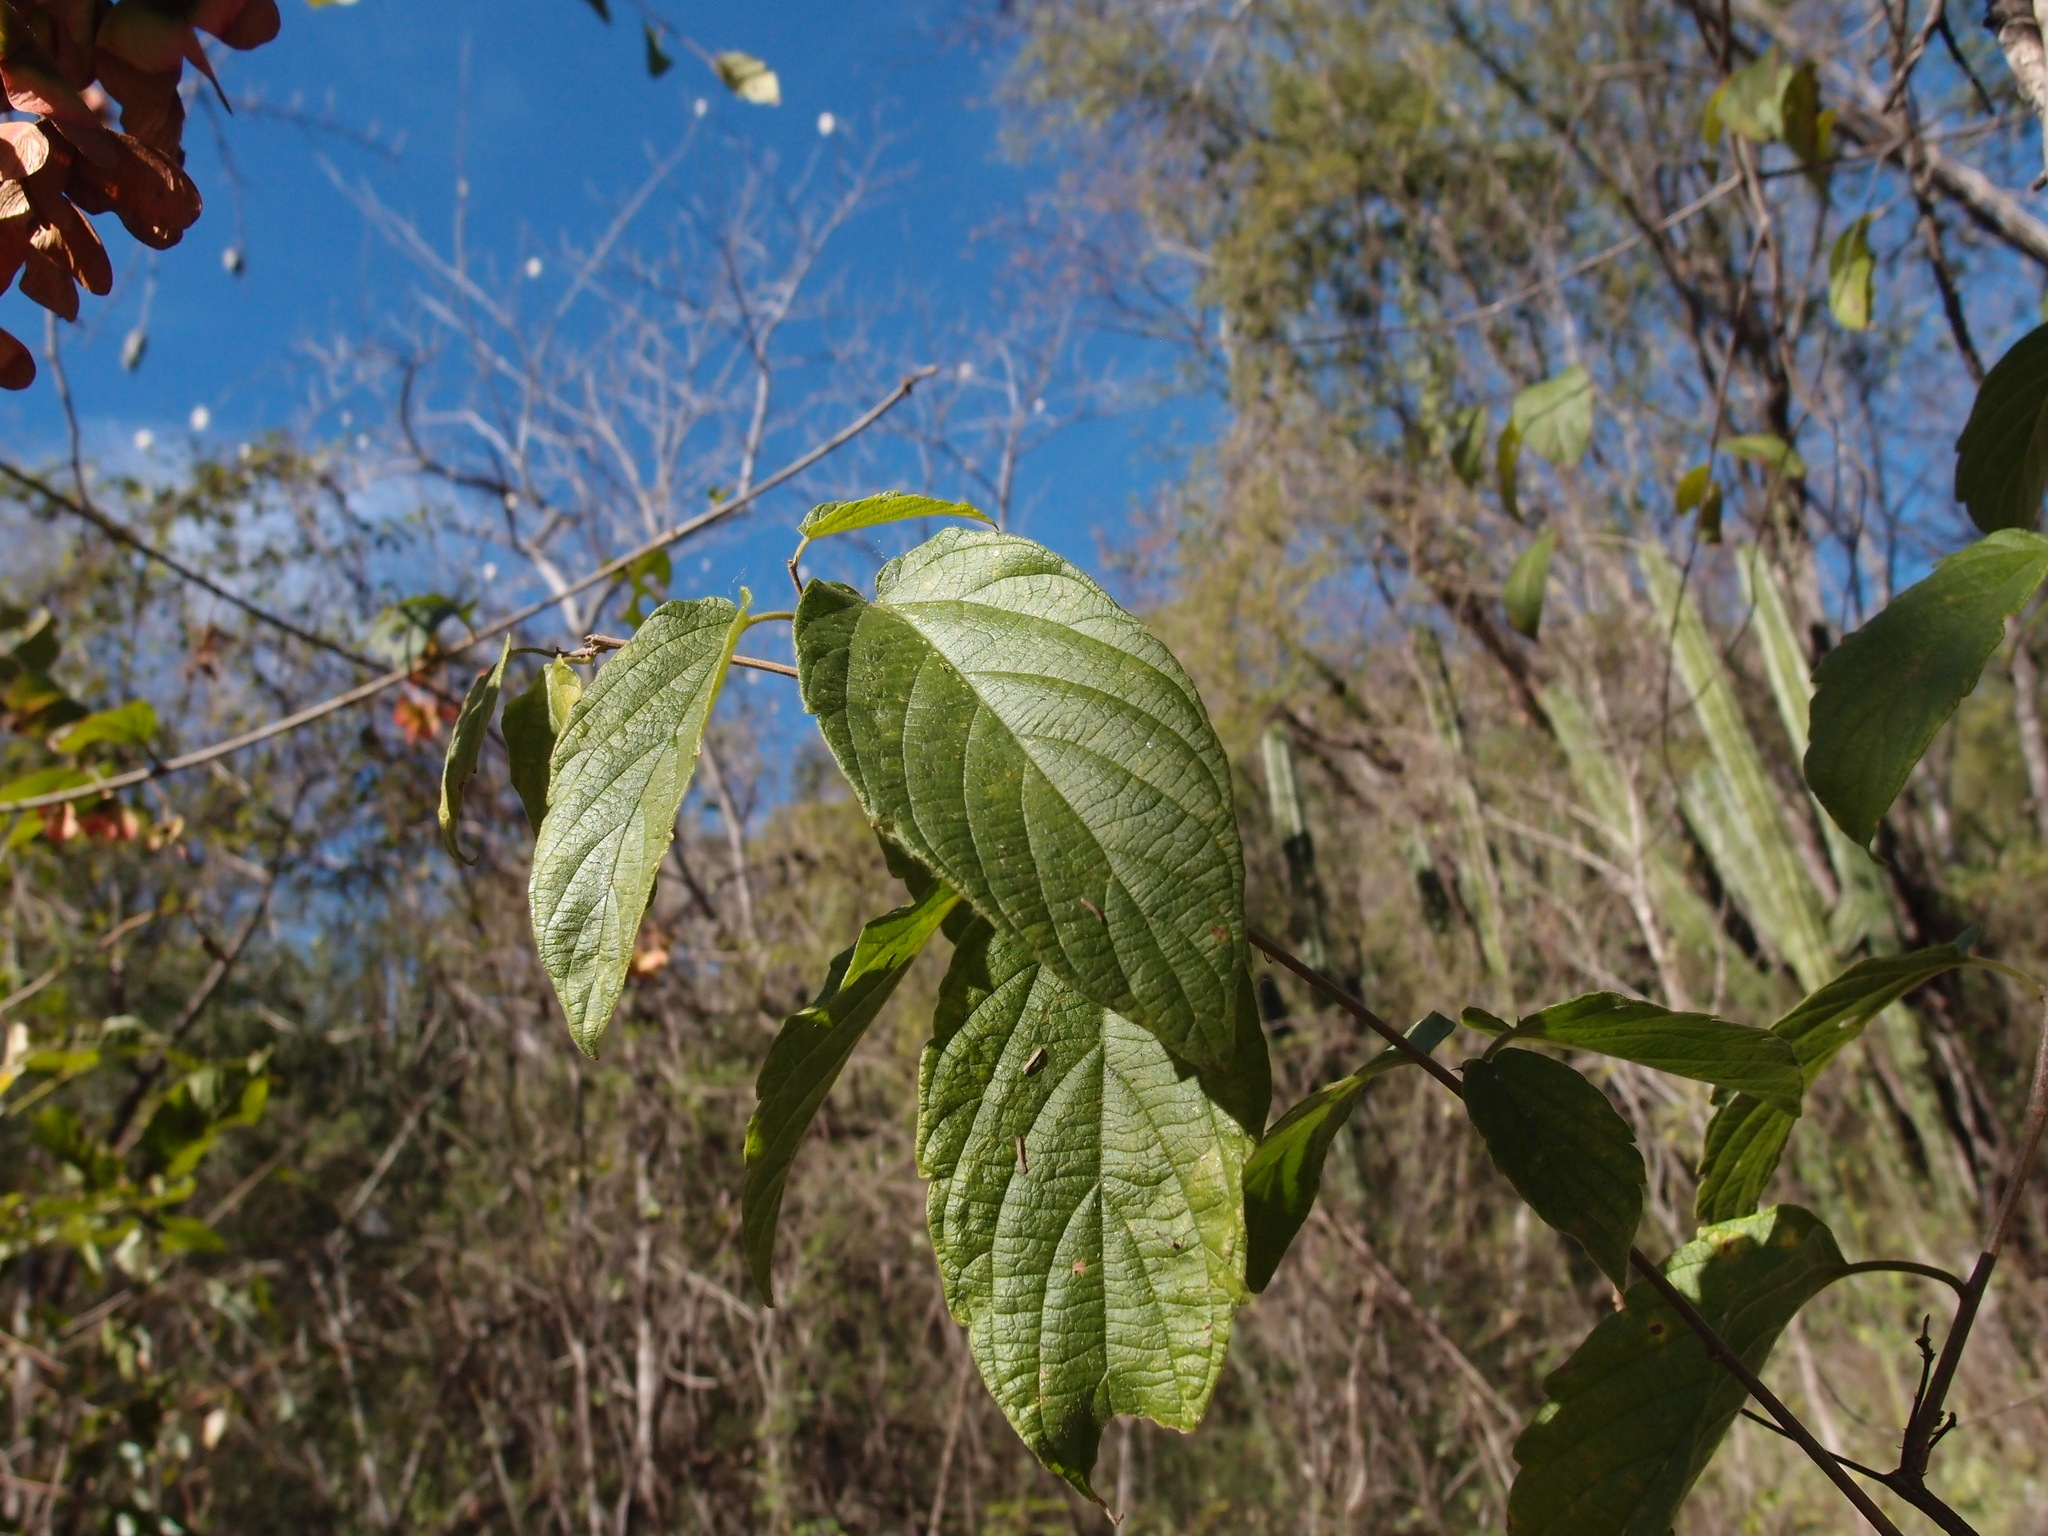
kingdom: Plantae
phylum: Tracheophyta
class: Magnoliopsida
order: Malpighiales
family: Malpighiaceae
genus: Heteropterys
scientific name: Heteropterys palmeri
